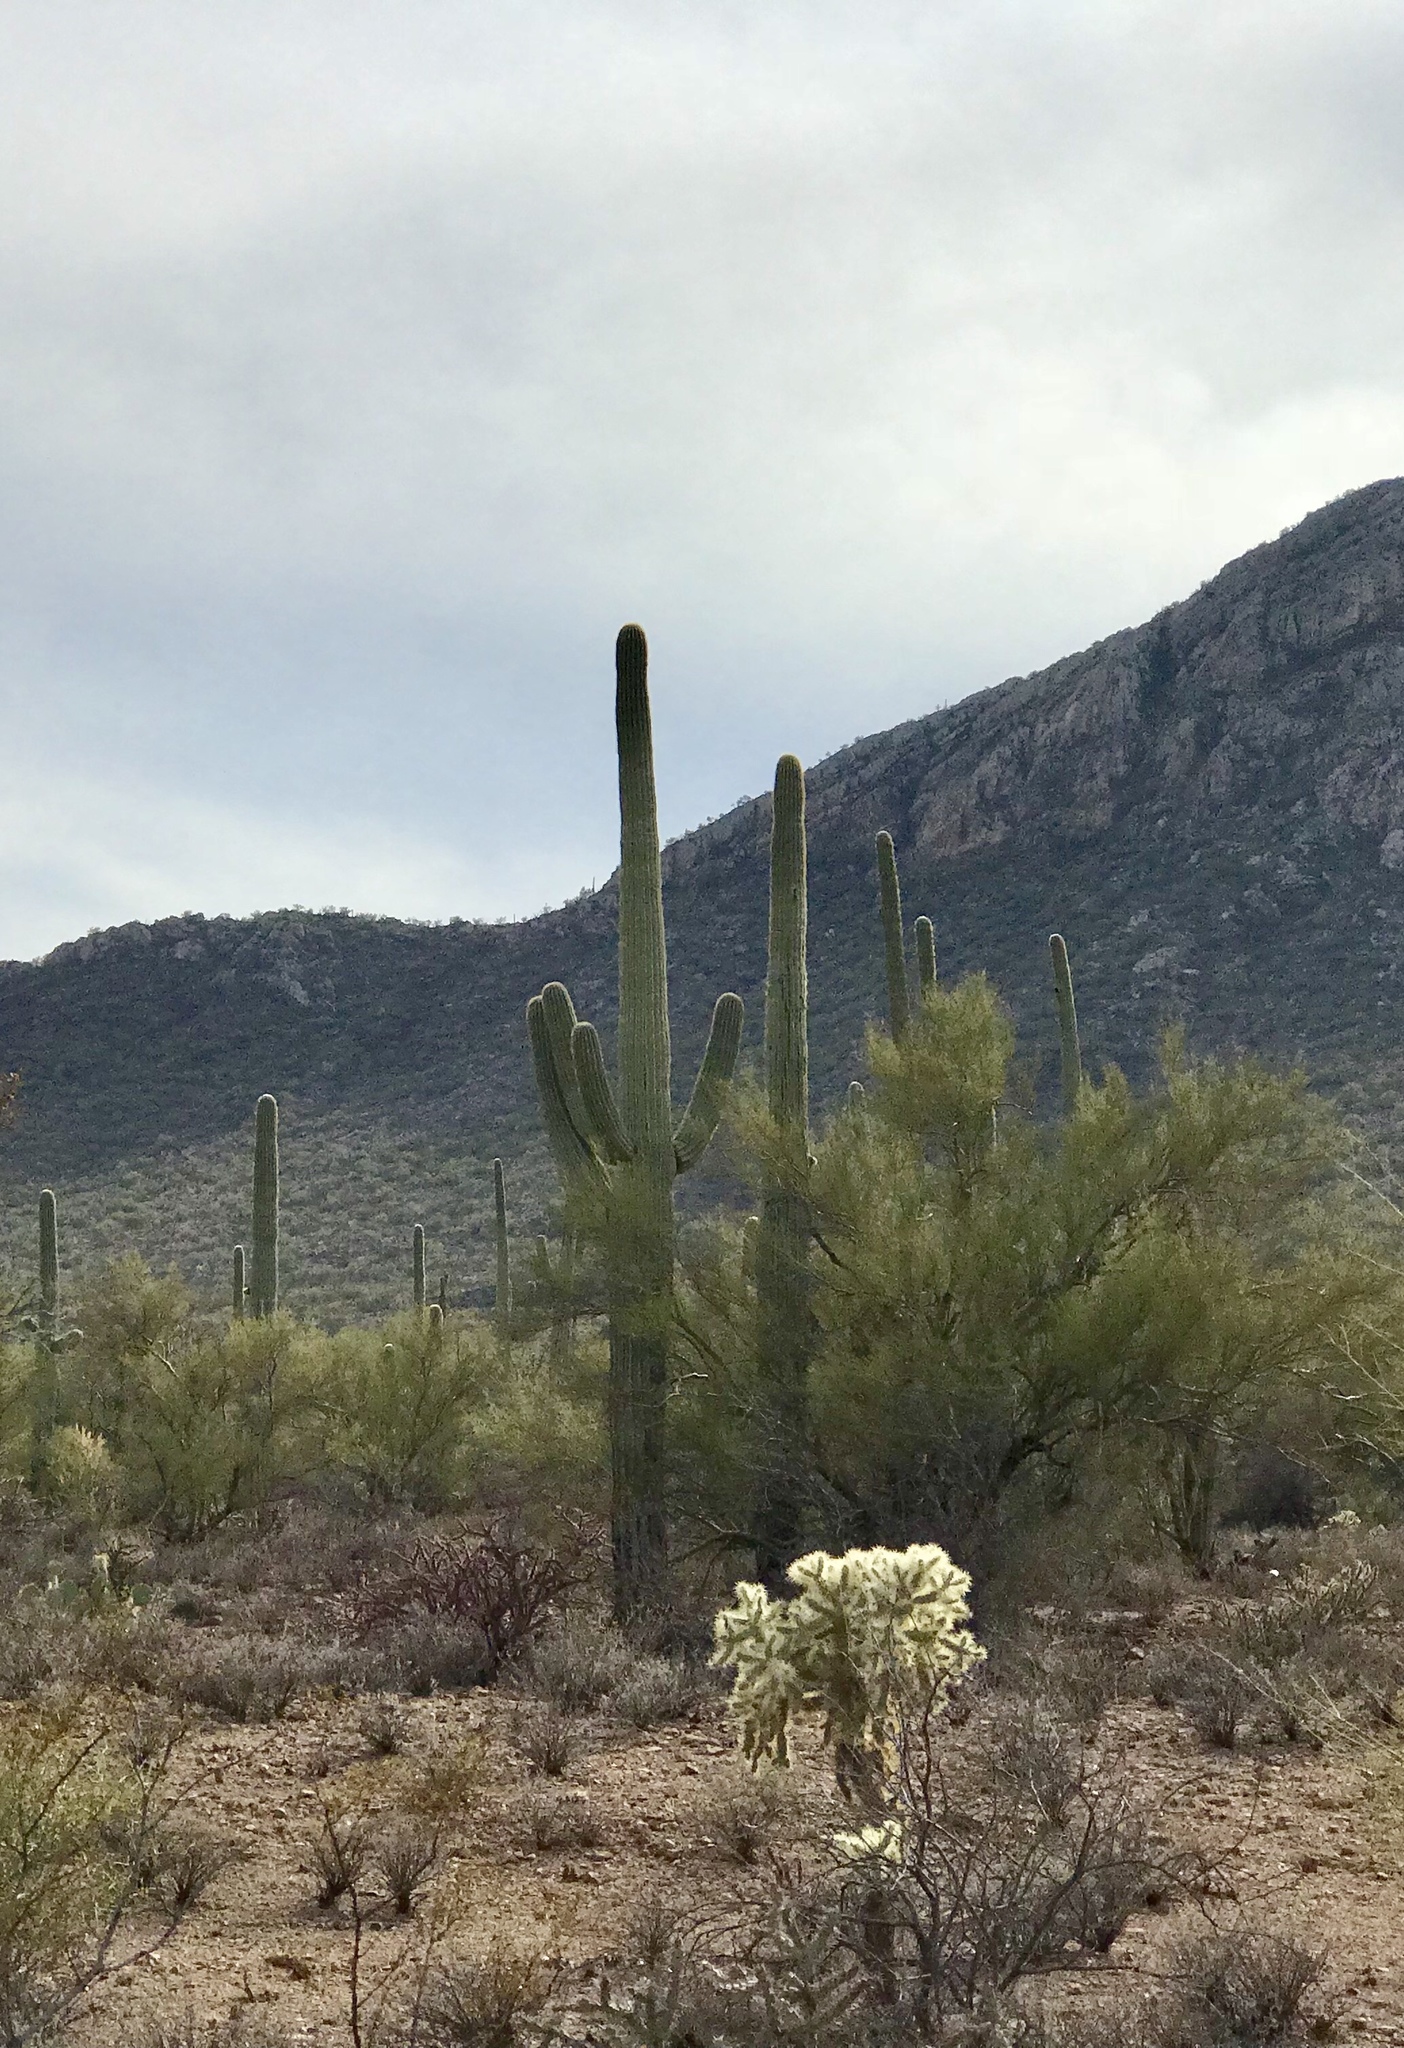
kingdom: Plantae
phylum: Tracheophyta
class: Magnoliopsida
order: Caryophyllales
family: Cactaceae
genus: Carnegiea
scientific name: Carnegiea gigantea
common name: Saguaro
